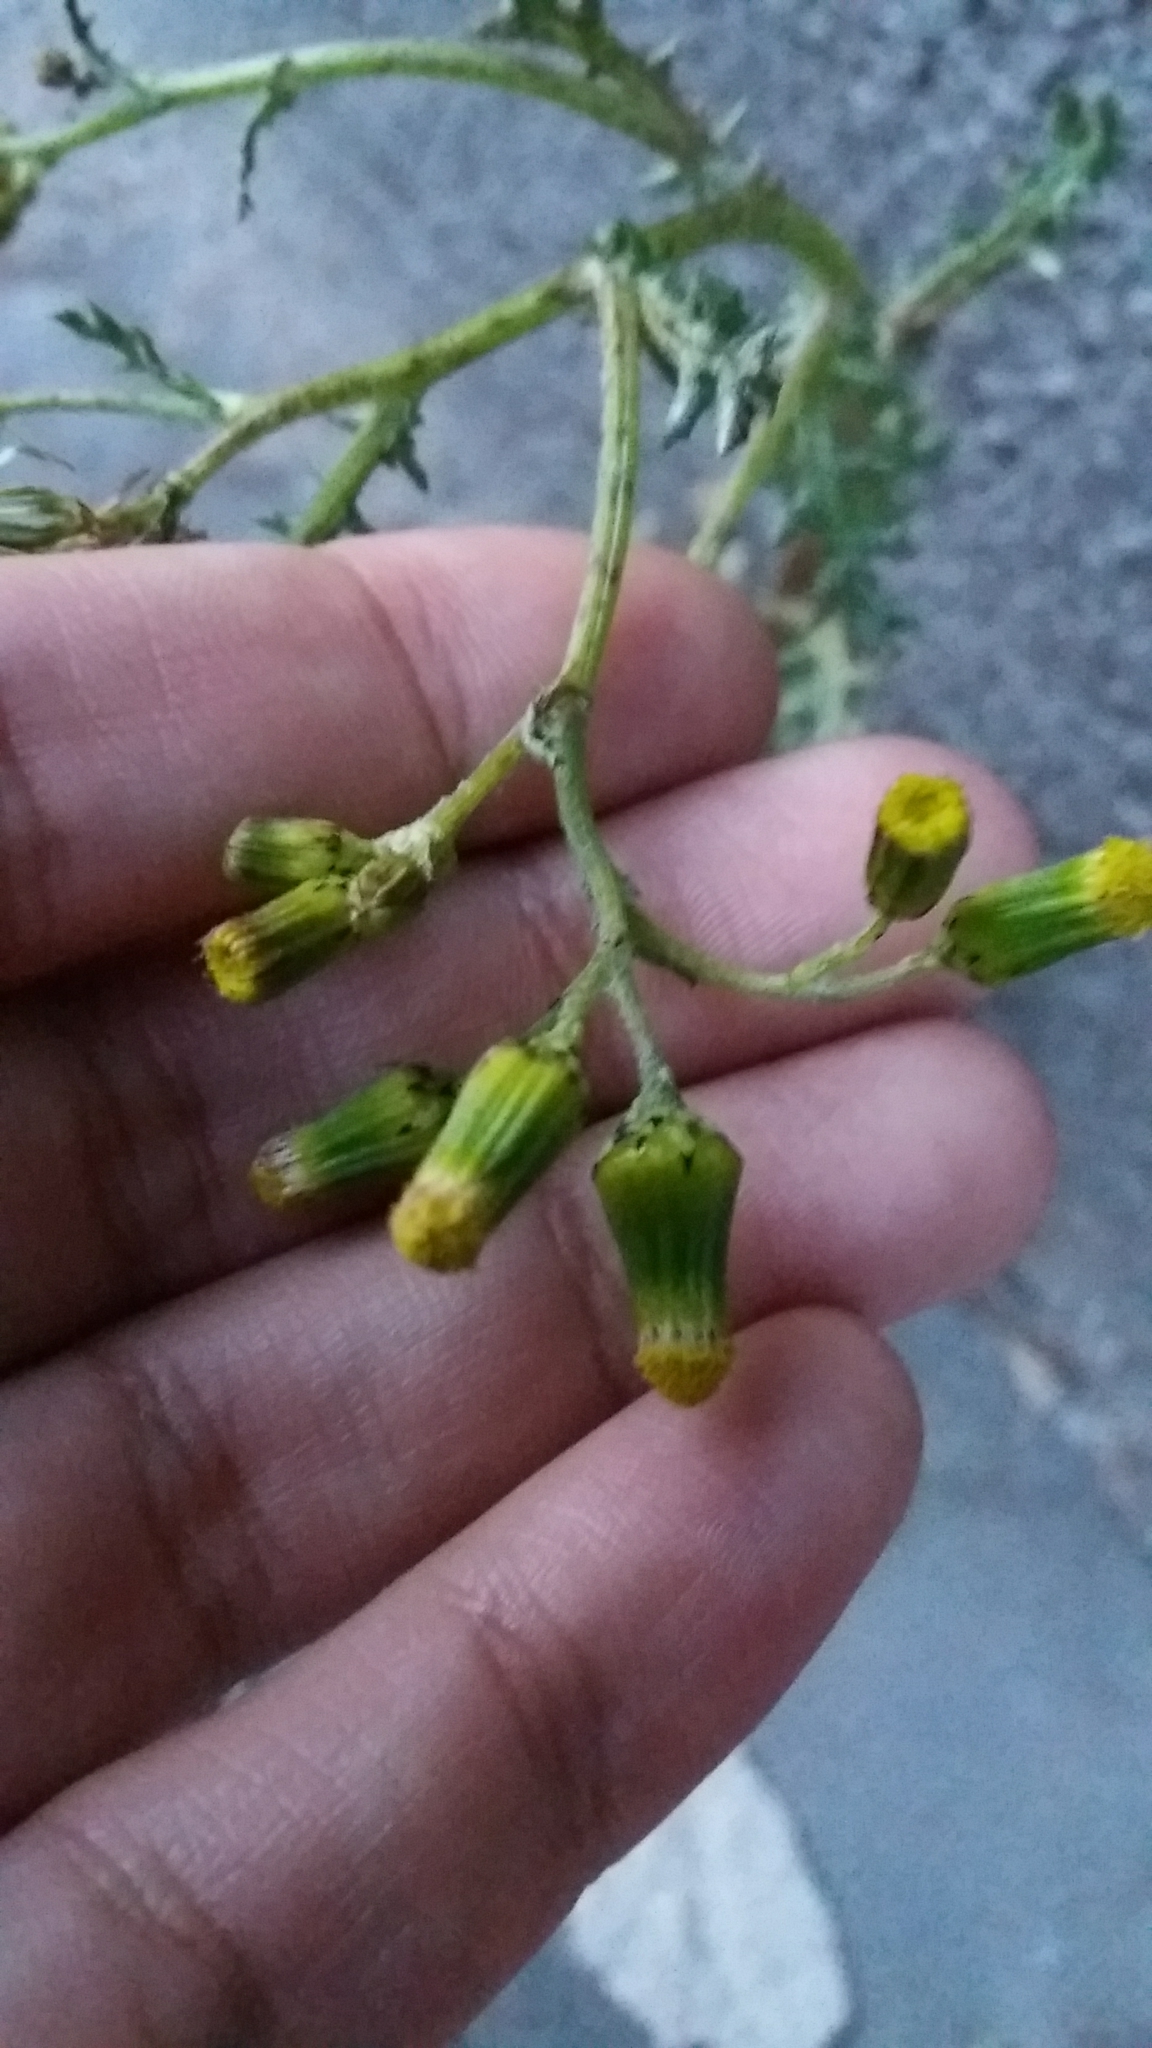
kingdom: Plantae
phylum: Tracheophyta
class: Magnoliopsida
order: Asterales
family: Asteraceae
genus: Senecio
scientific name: Senecio vulgaris
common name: Old-man-in-the-spring
